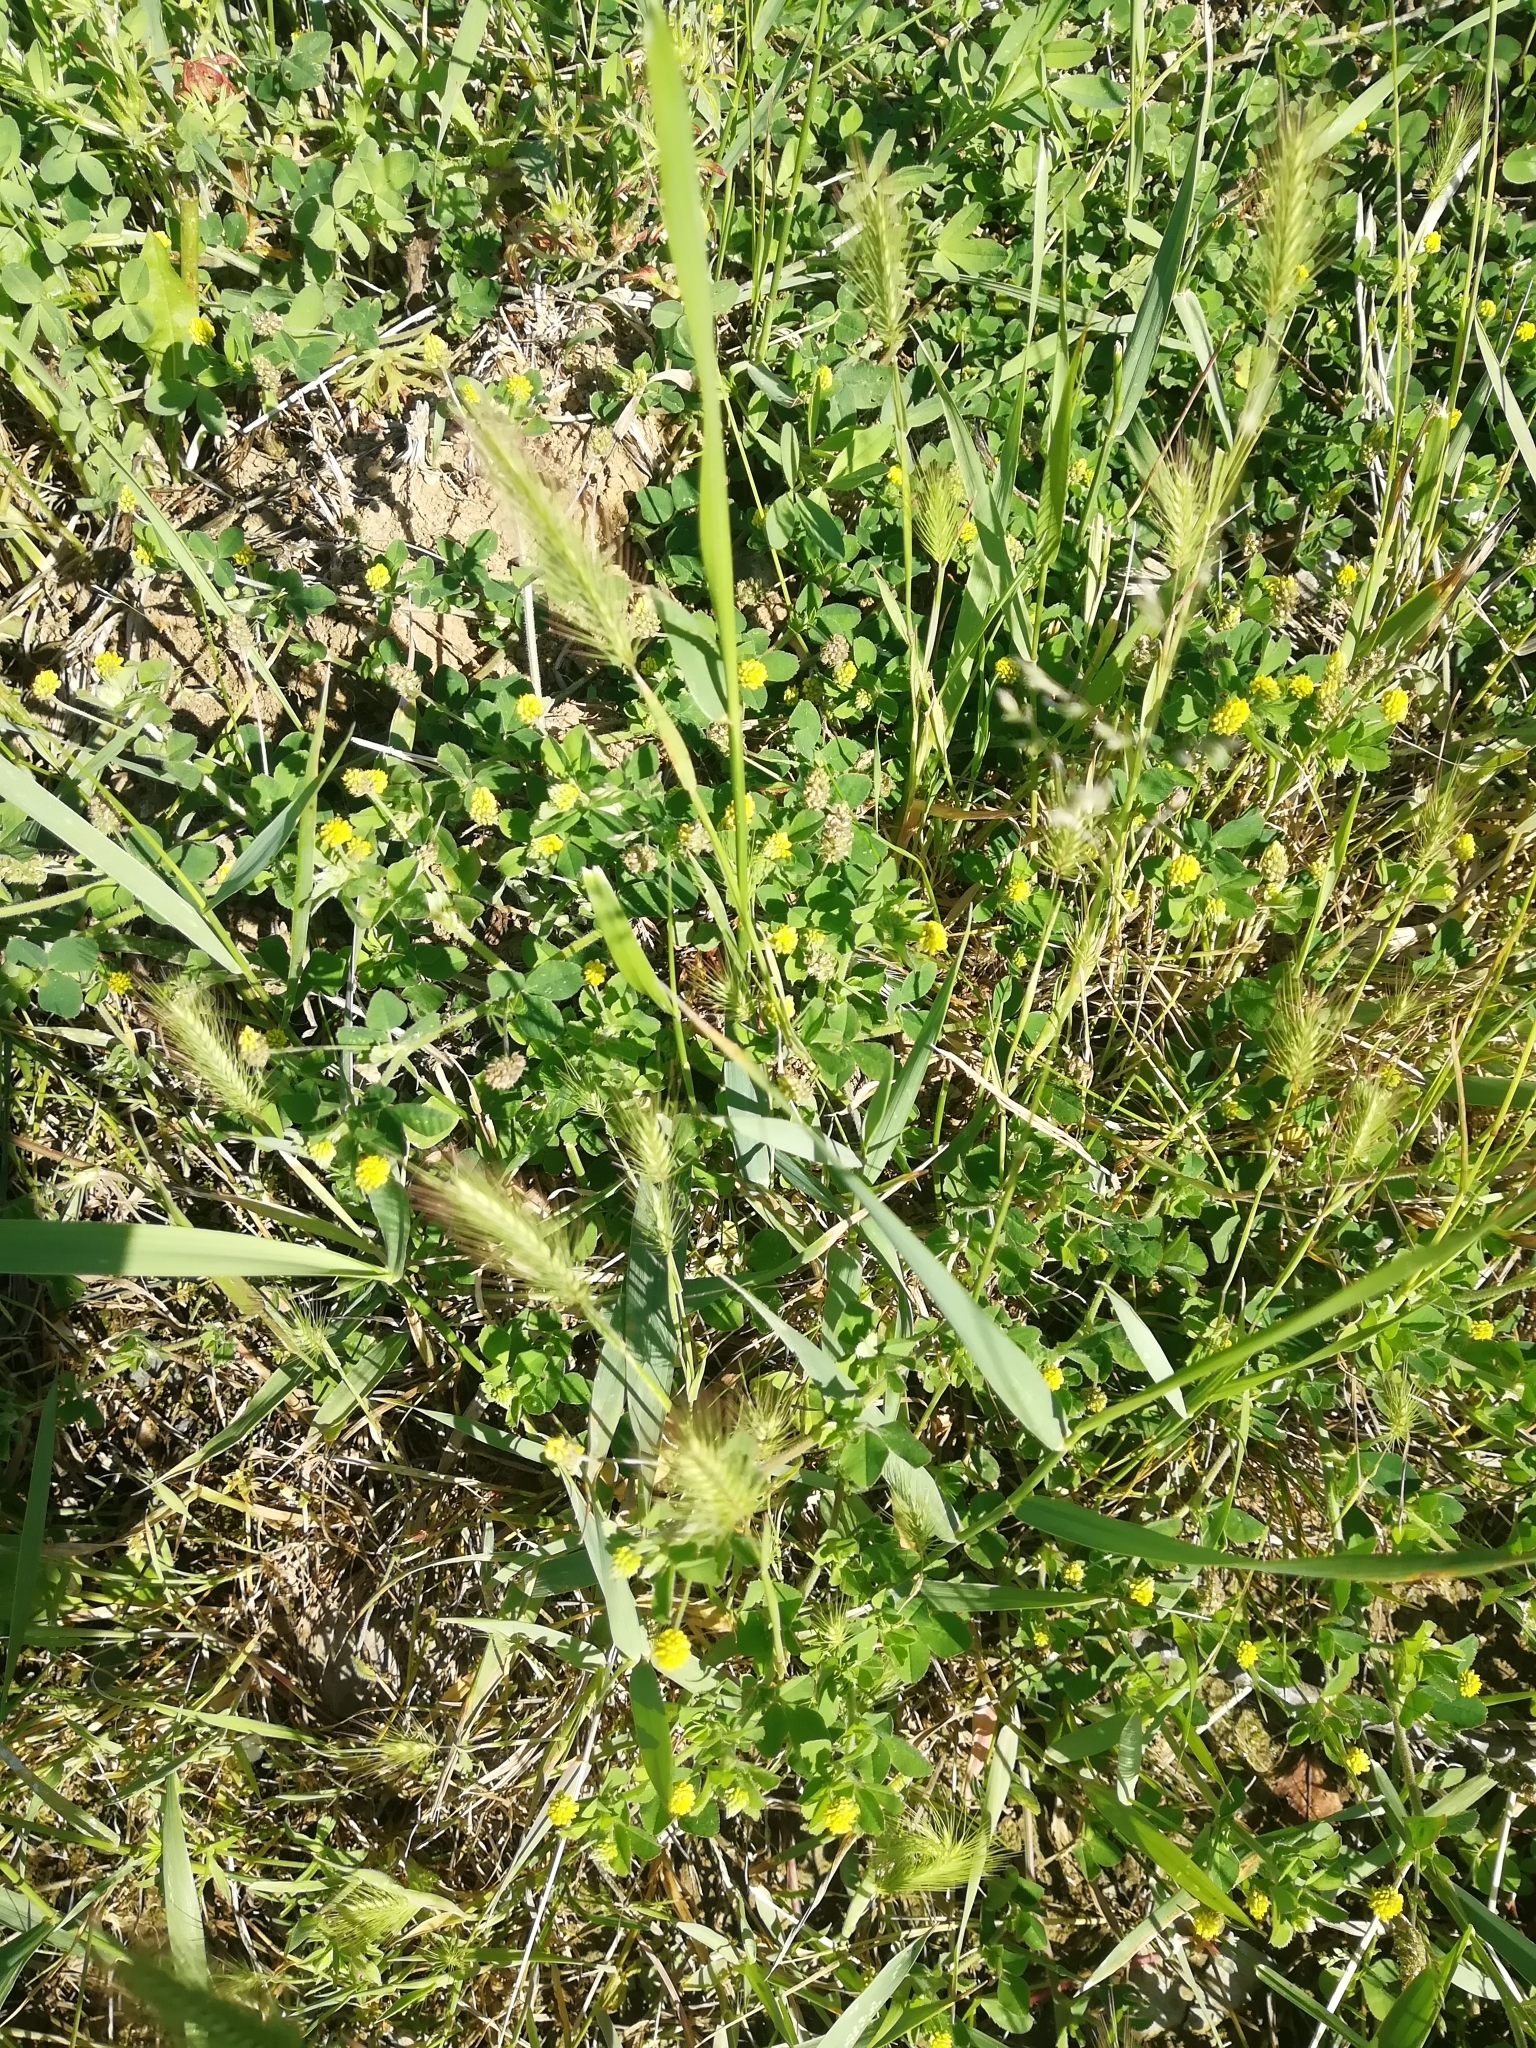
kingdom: Plantae
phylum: Tracheophyta
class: Magnoliopsida
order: Fabales
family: Fabaceae
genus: Medicago
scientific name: Medicago lupulina
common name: Black medick
